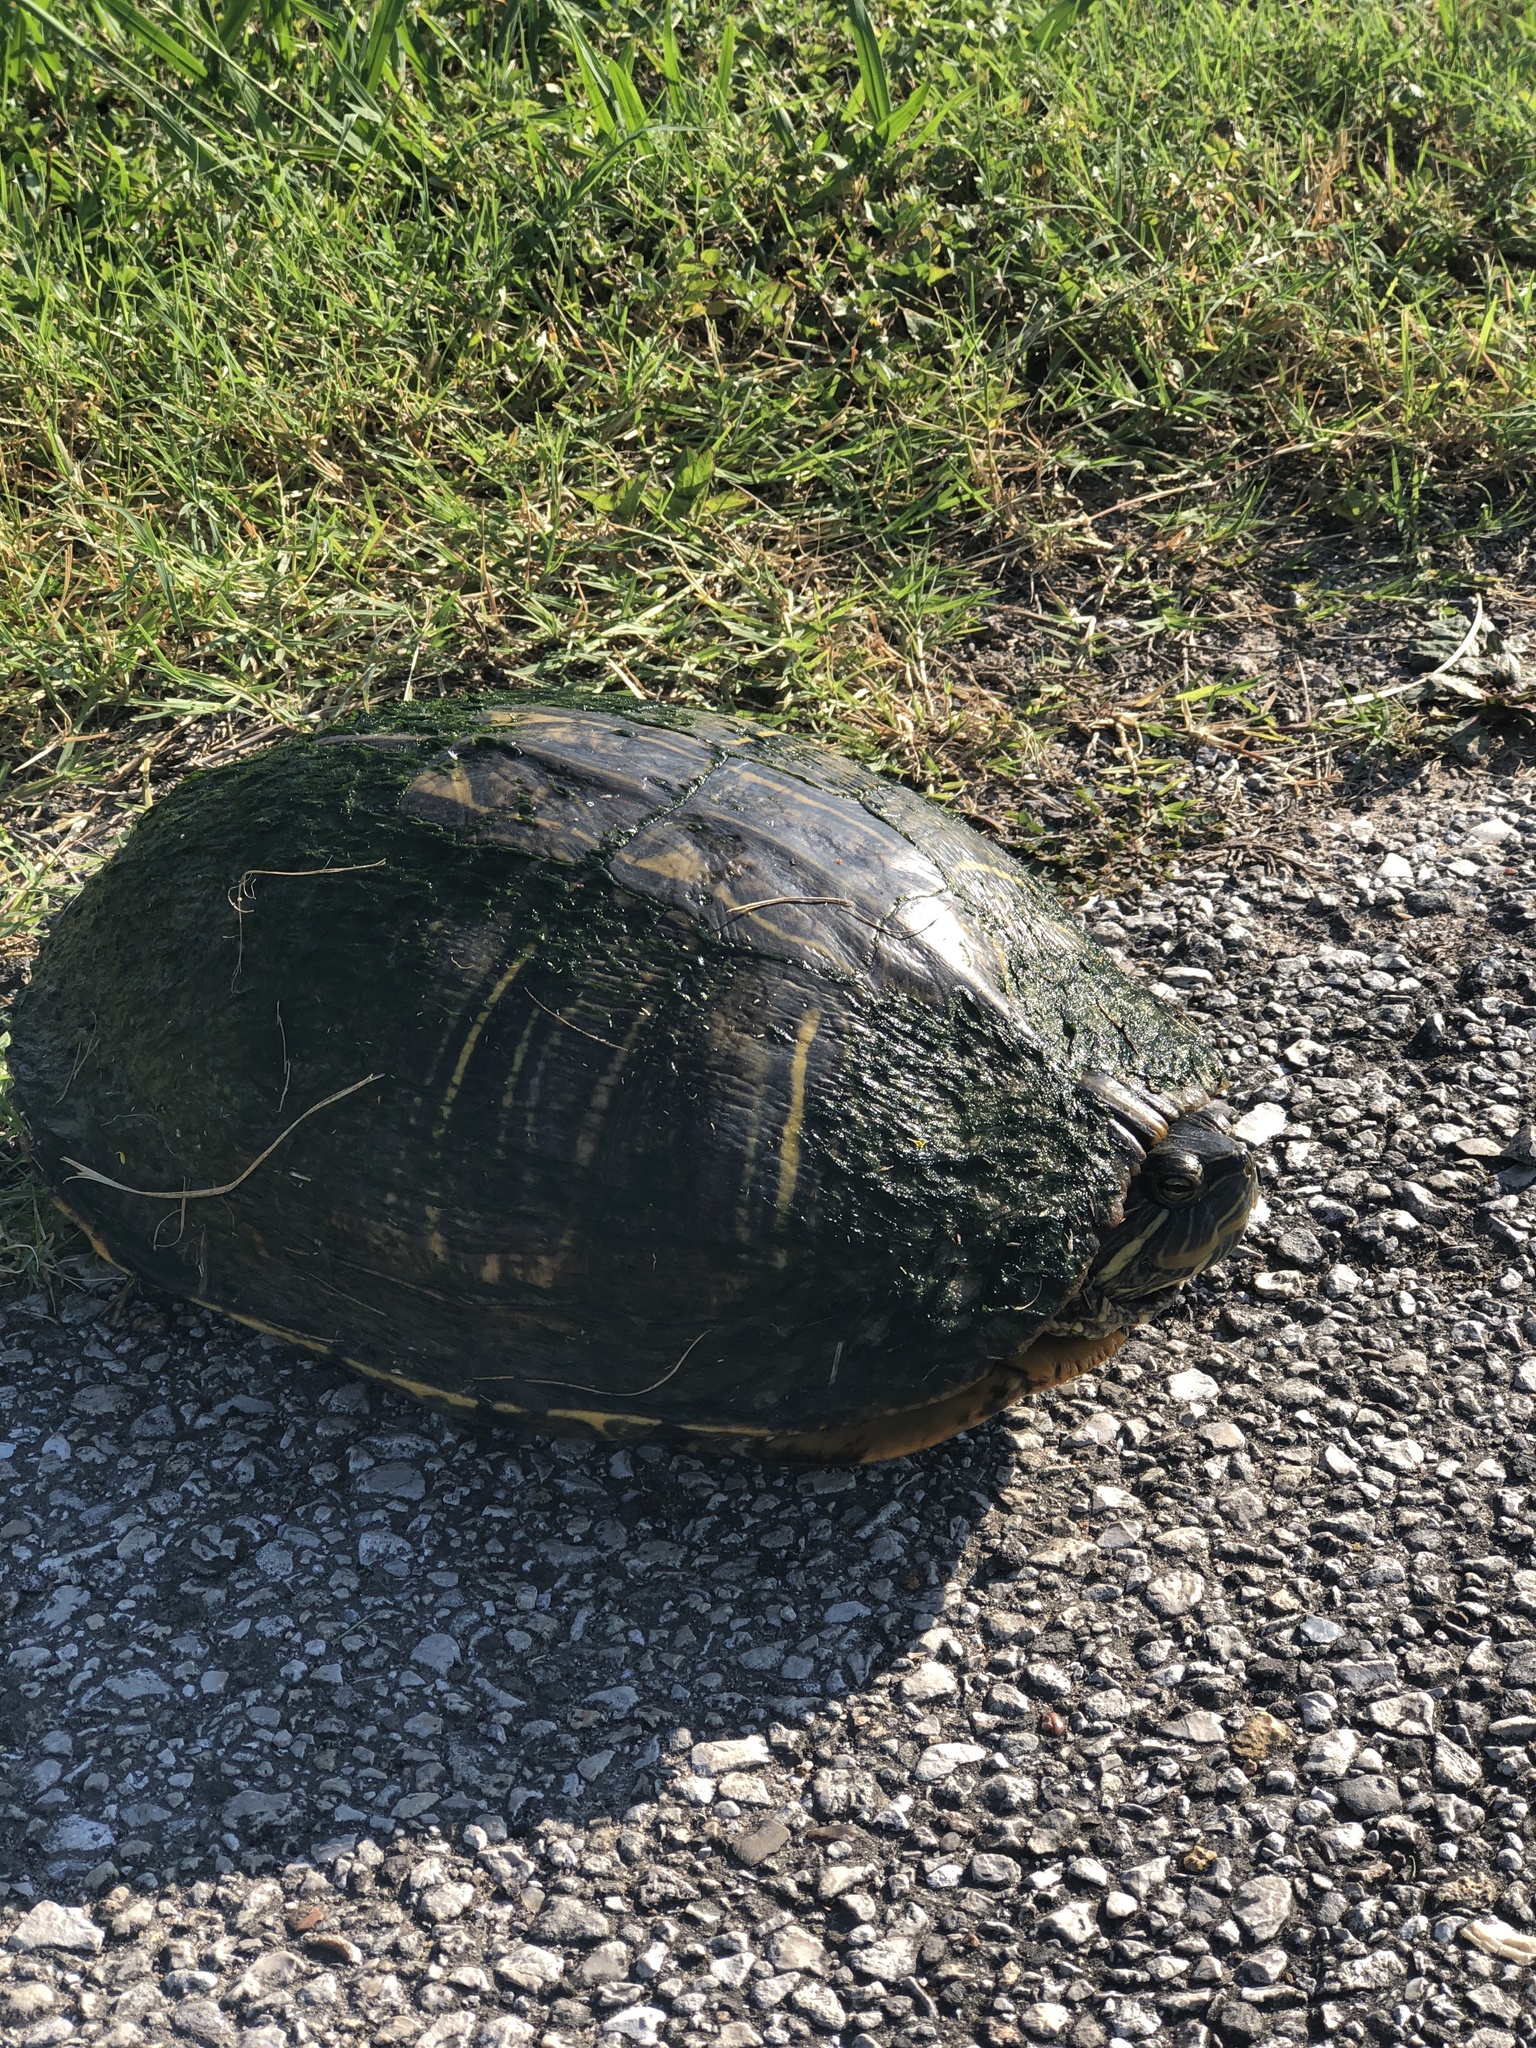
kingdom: Animalia
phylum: Chordata
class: Testudines
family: Emydidae
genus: Trachemys
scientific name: Trachemys scripta
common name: Slider
